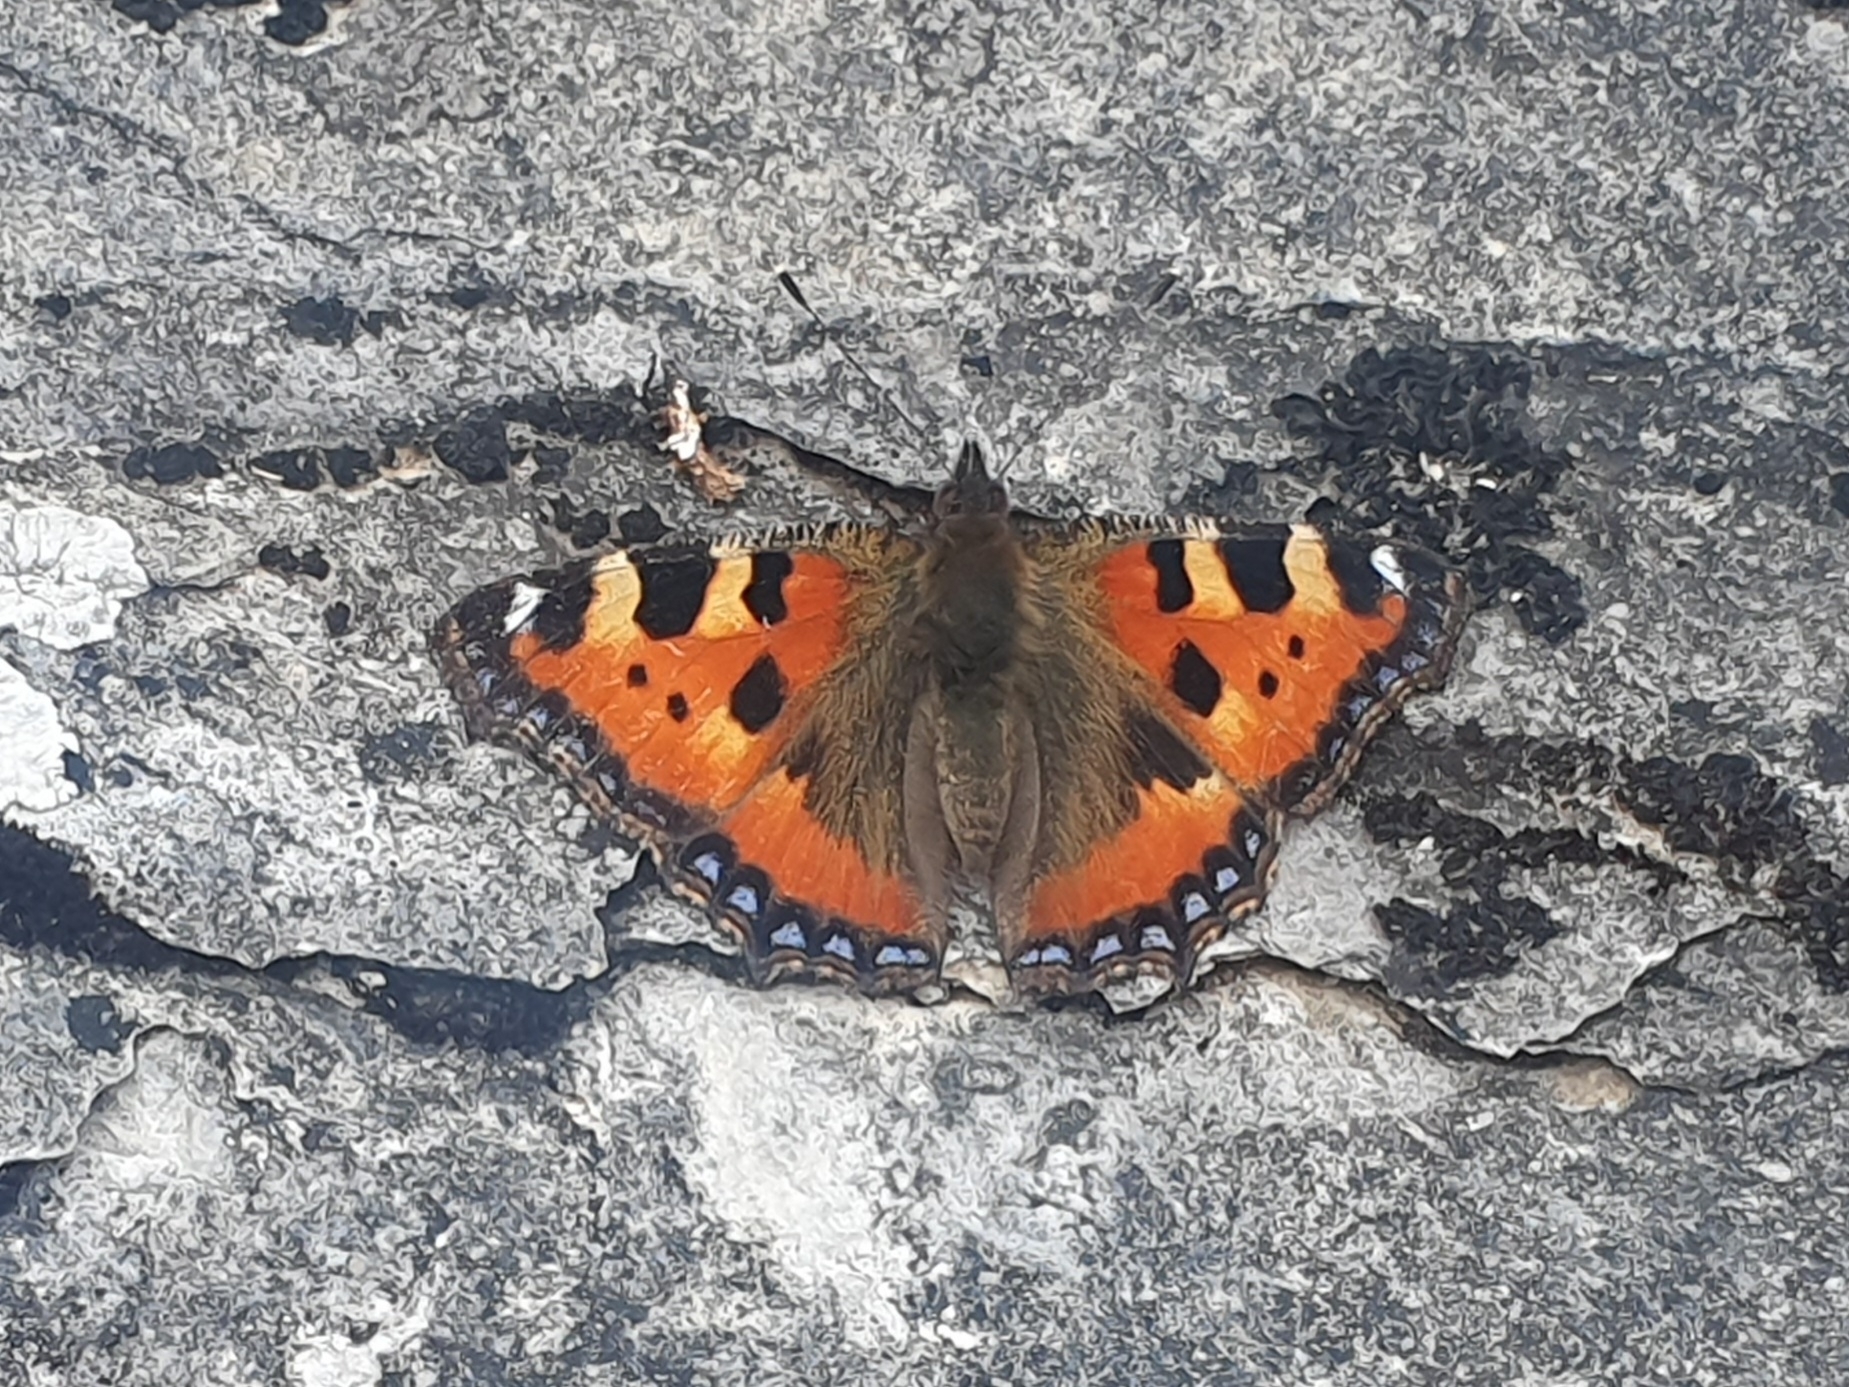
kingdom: Animalia
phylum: Arthropoda
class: Insecta
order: Lepidoptera
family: Nymphalidae
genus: Aglais
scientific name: Aglais urticae
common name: Small tortoiseshell
